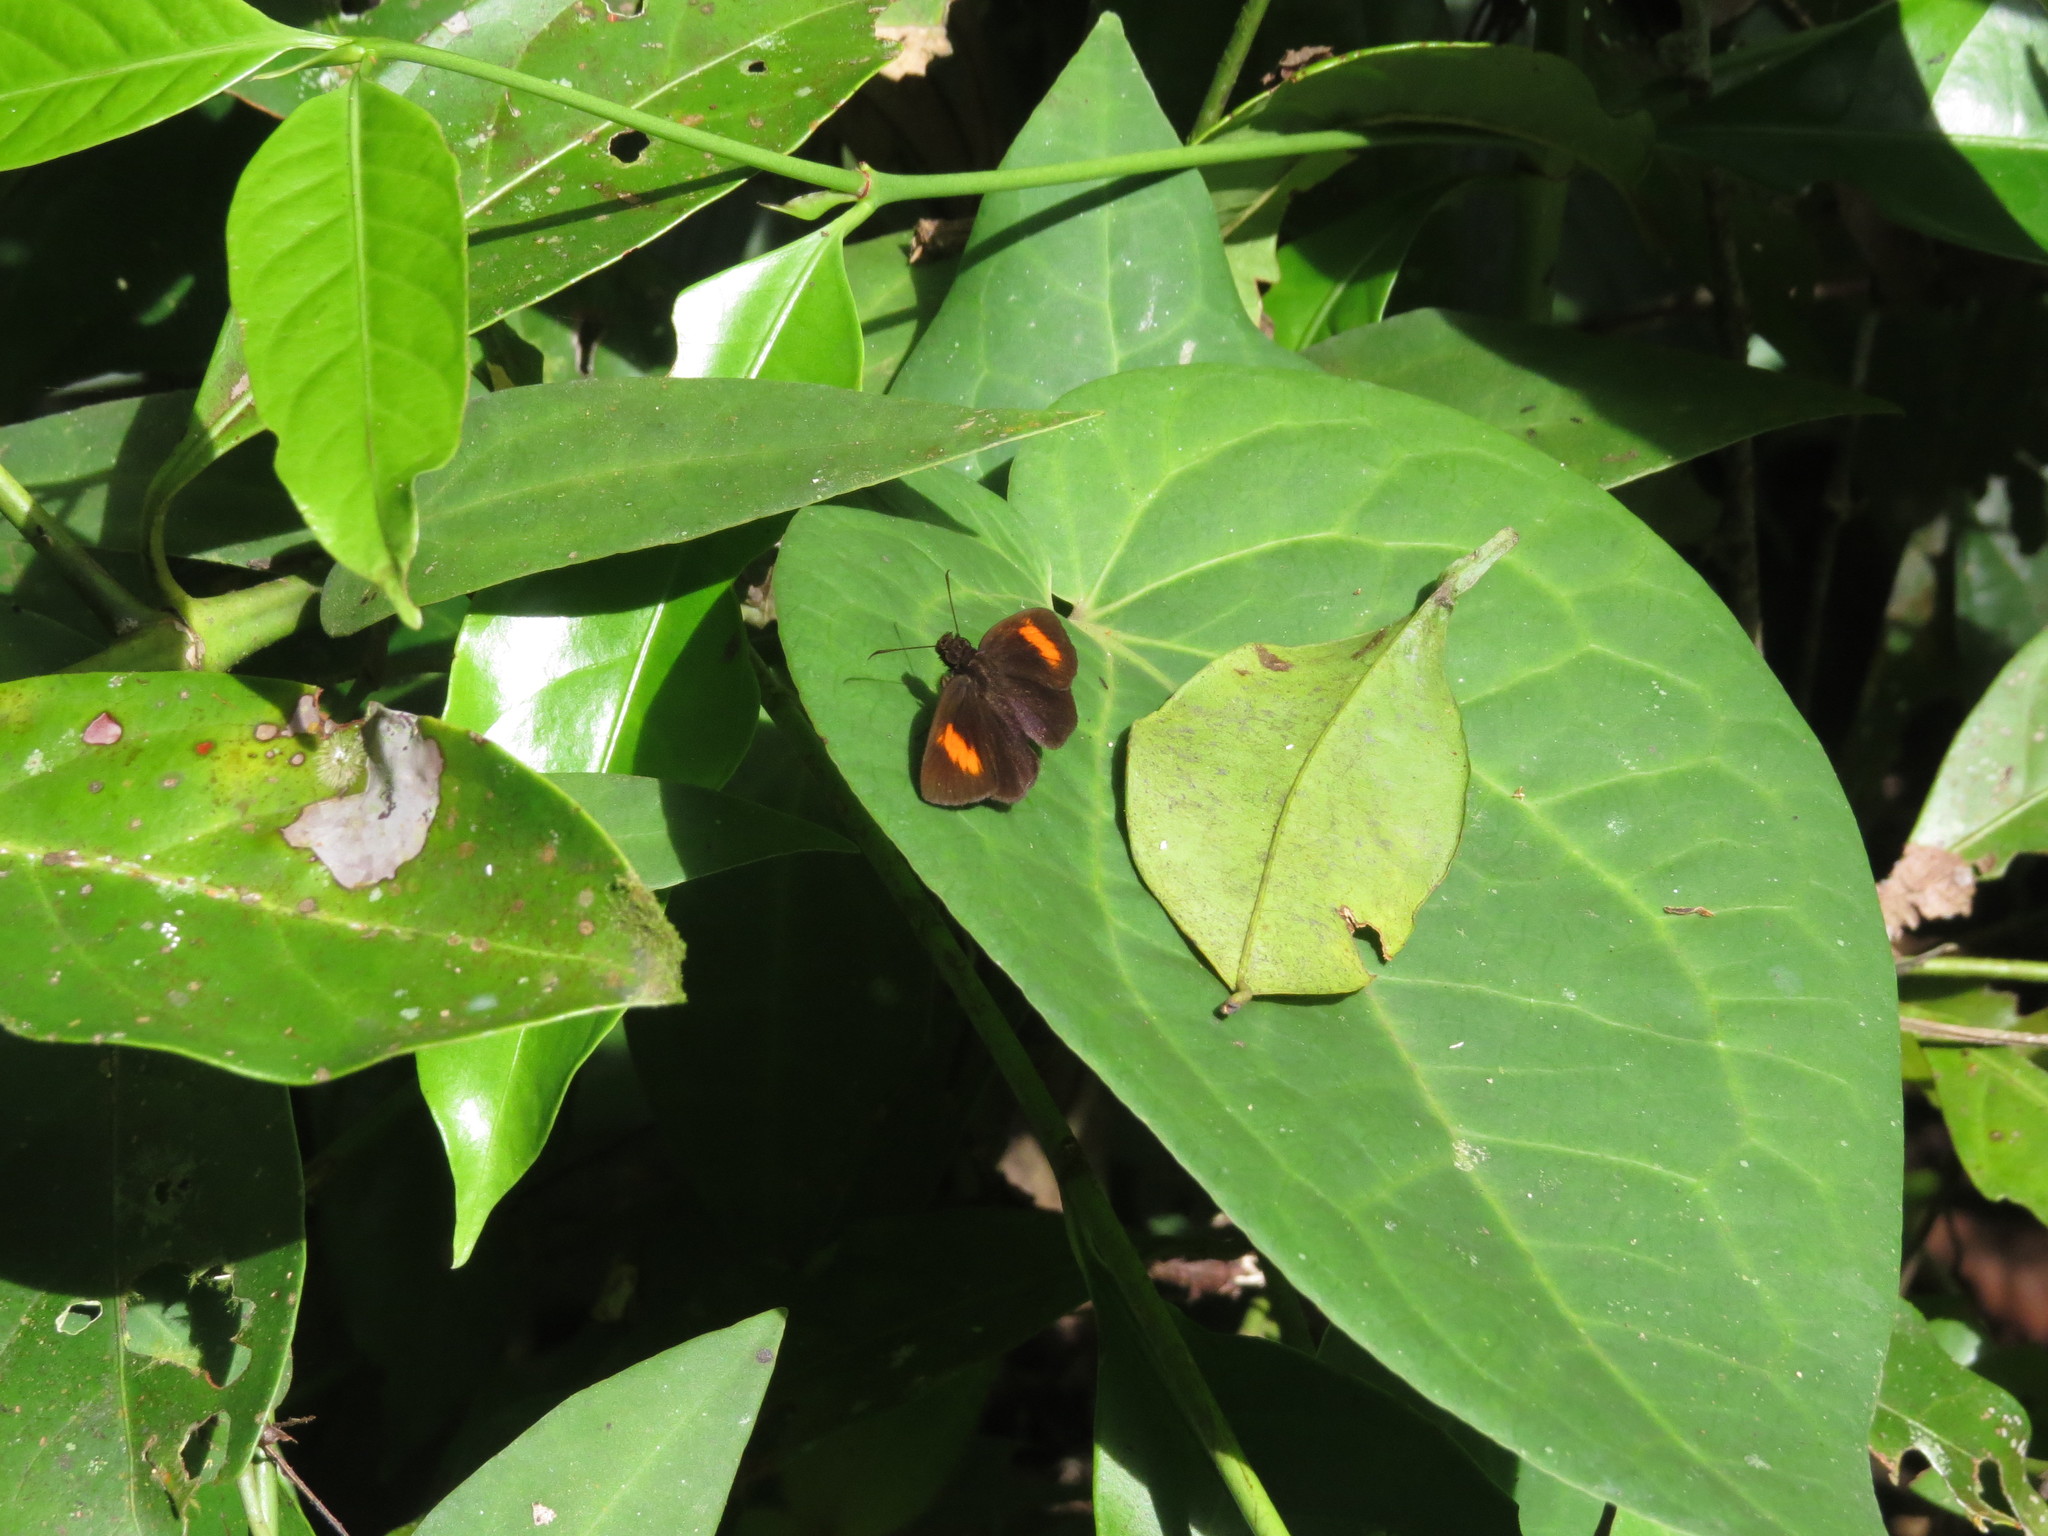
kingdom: Animalia
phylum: Arthropoda
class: Insecta
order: Lepidoptera
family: Hesperiidae
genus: Koruthaialos
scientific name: Koruthaialos sindu
